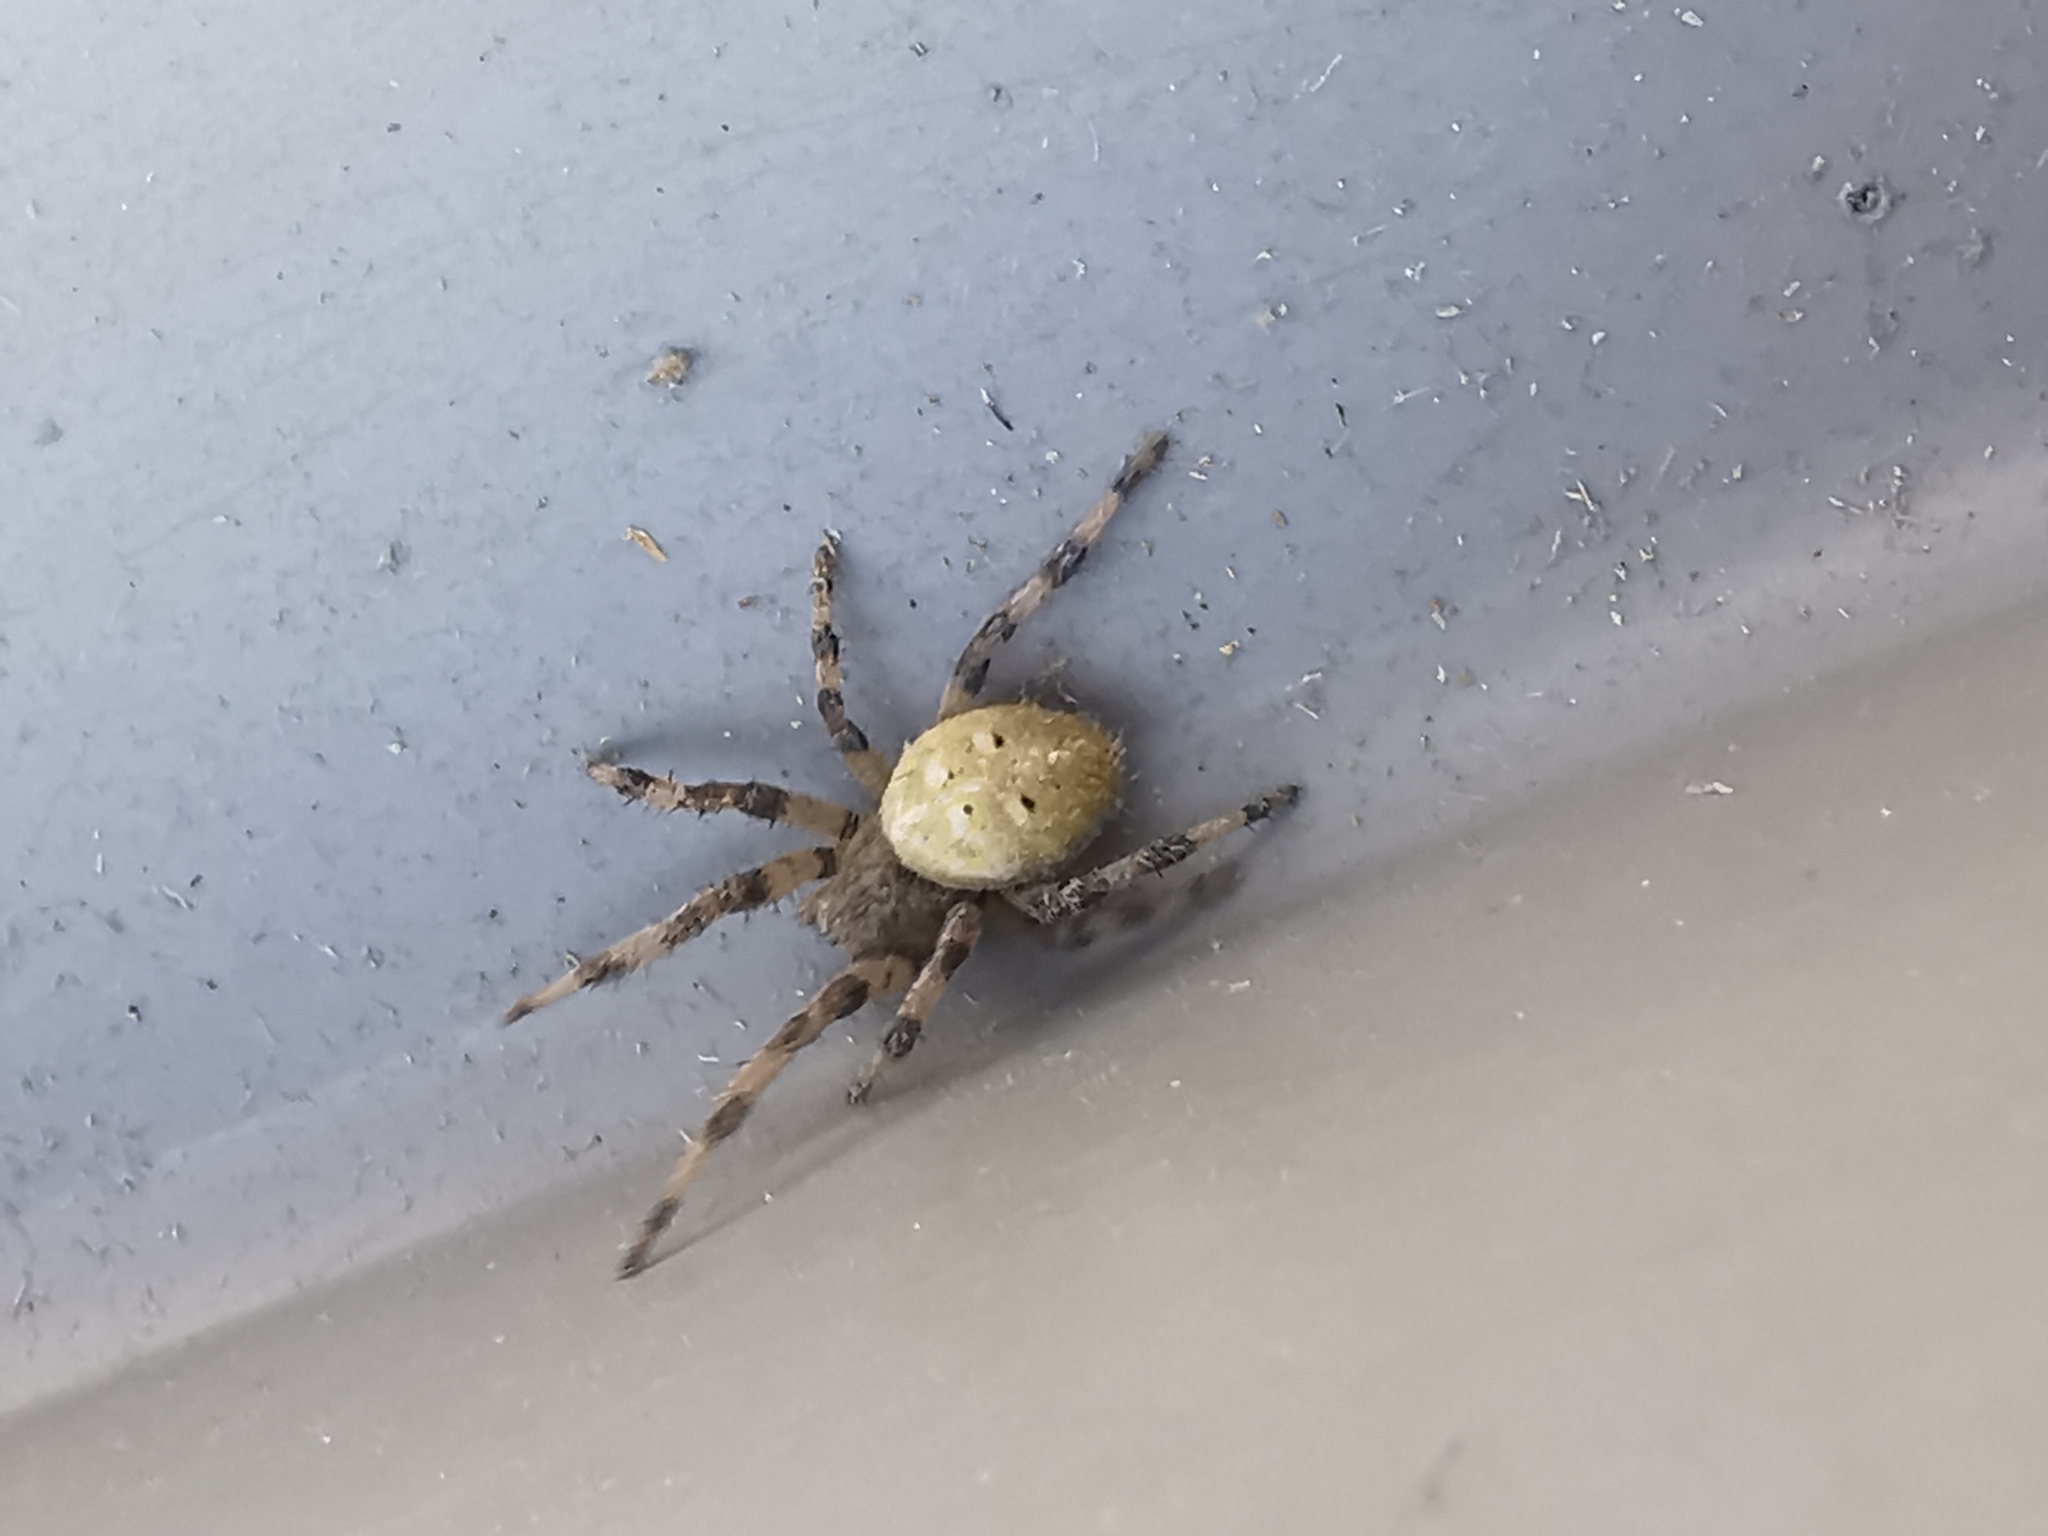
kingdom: Animalia
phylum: Arthropoda
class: Arachnida
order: Araneae
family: Araneidae
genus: Araneus
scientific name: Araneus quadratus
